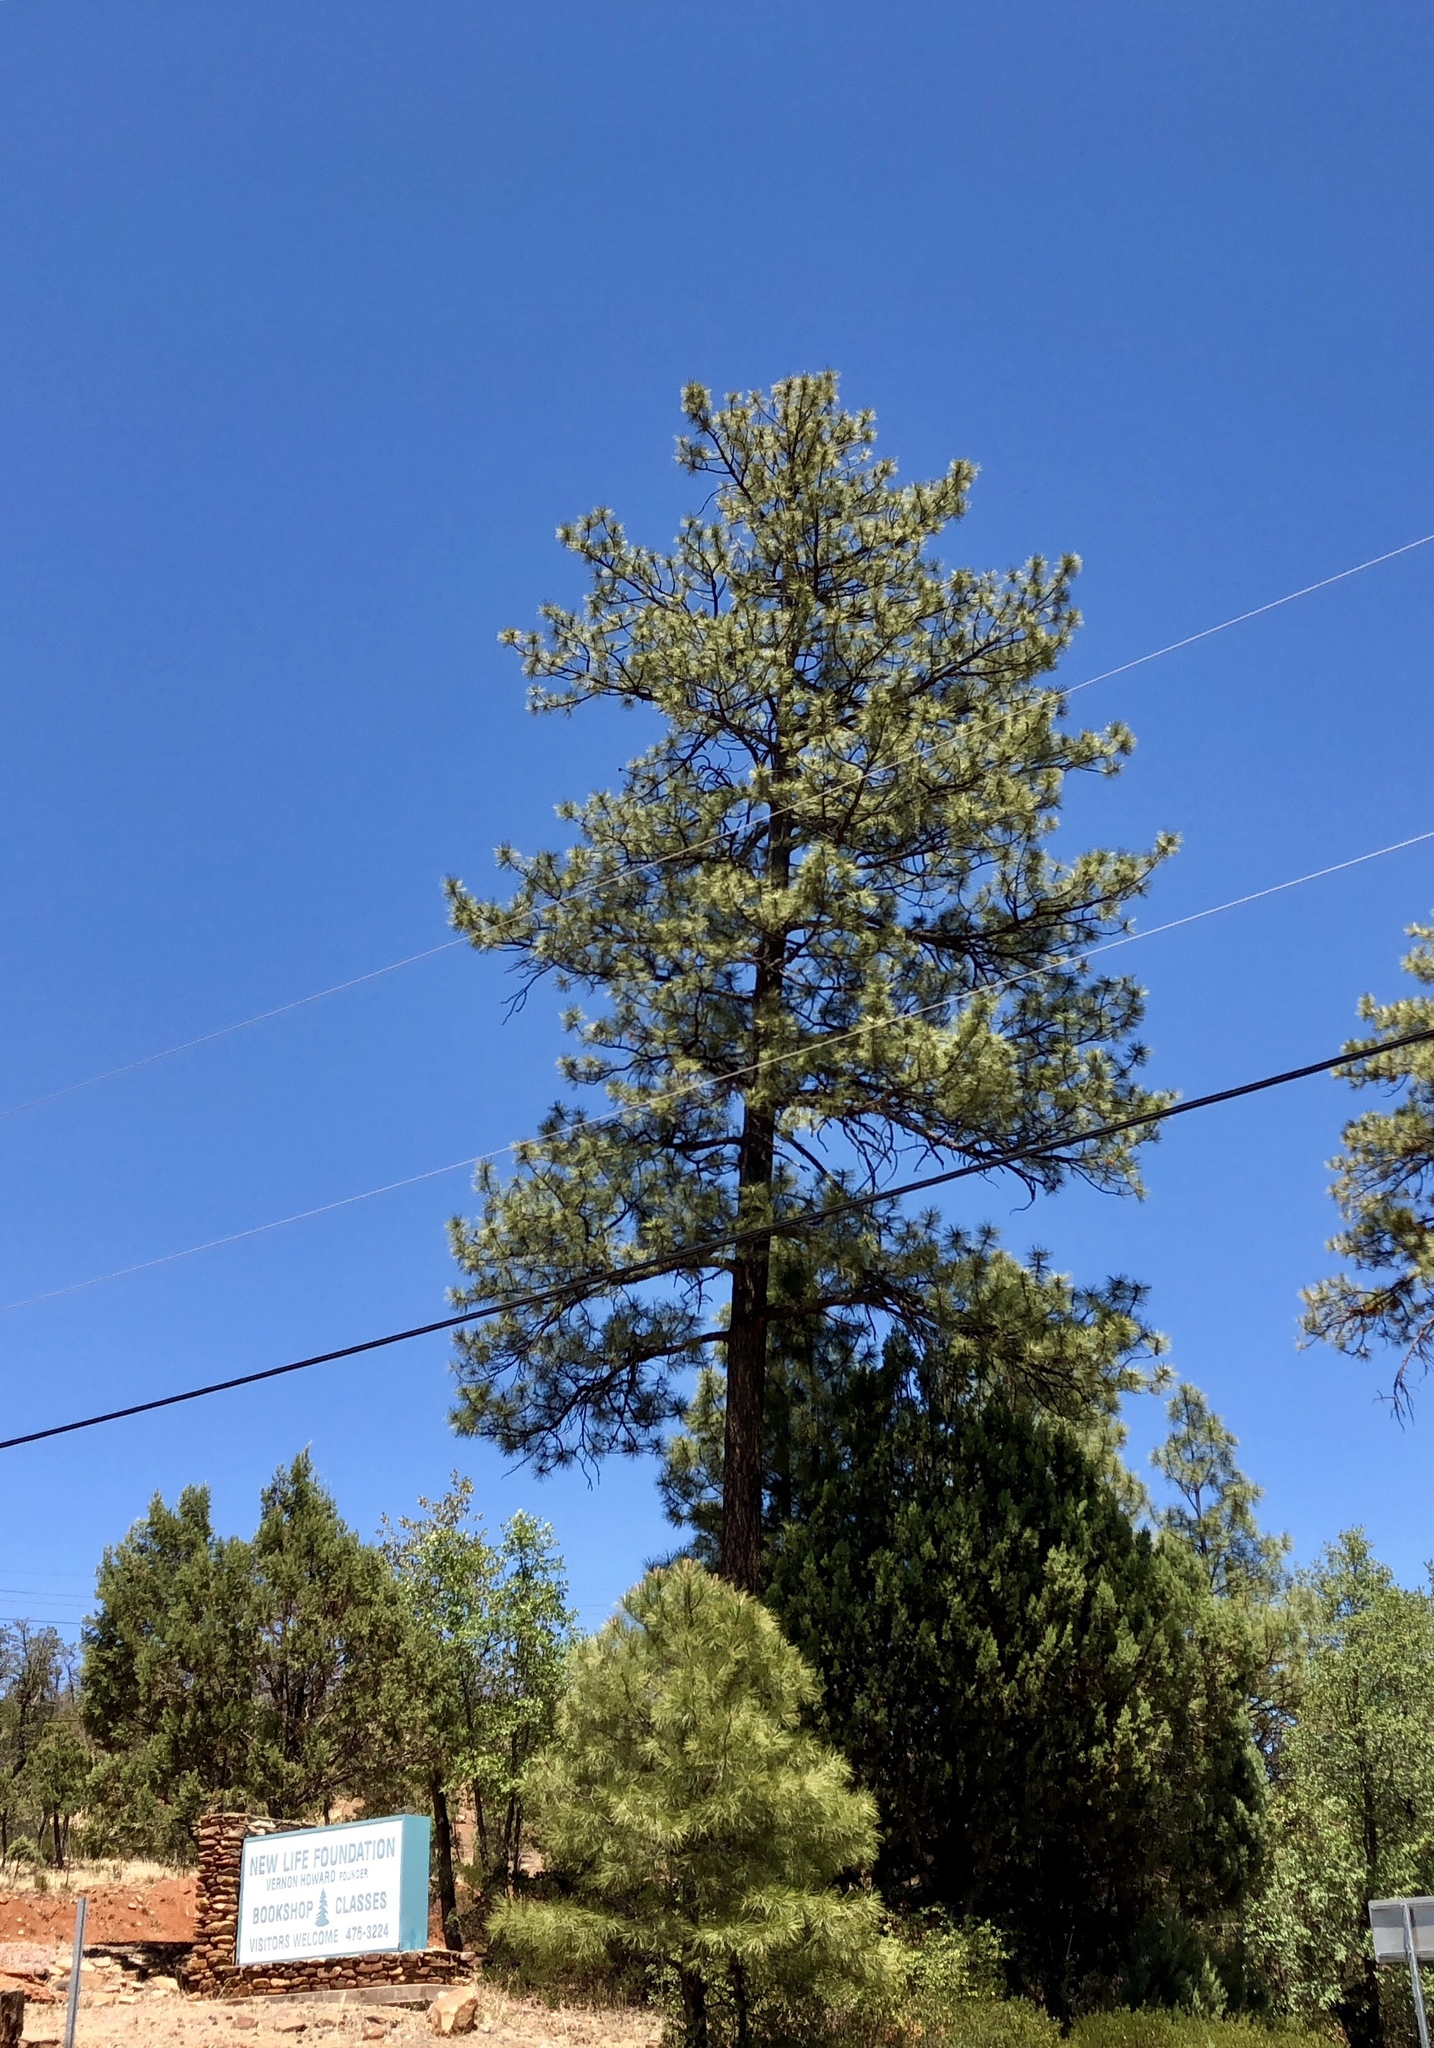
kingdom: Plantae
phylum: Tracheophyta
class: Pinopsida
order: Pinales
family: Pinaceae
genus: Pinus
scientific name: Pinus ponderosa
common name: Western yellow-pine
